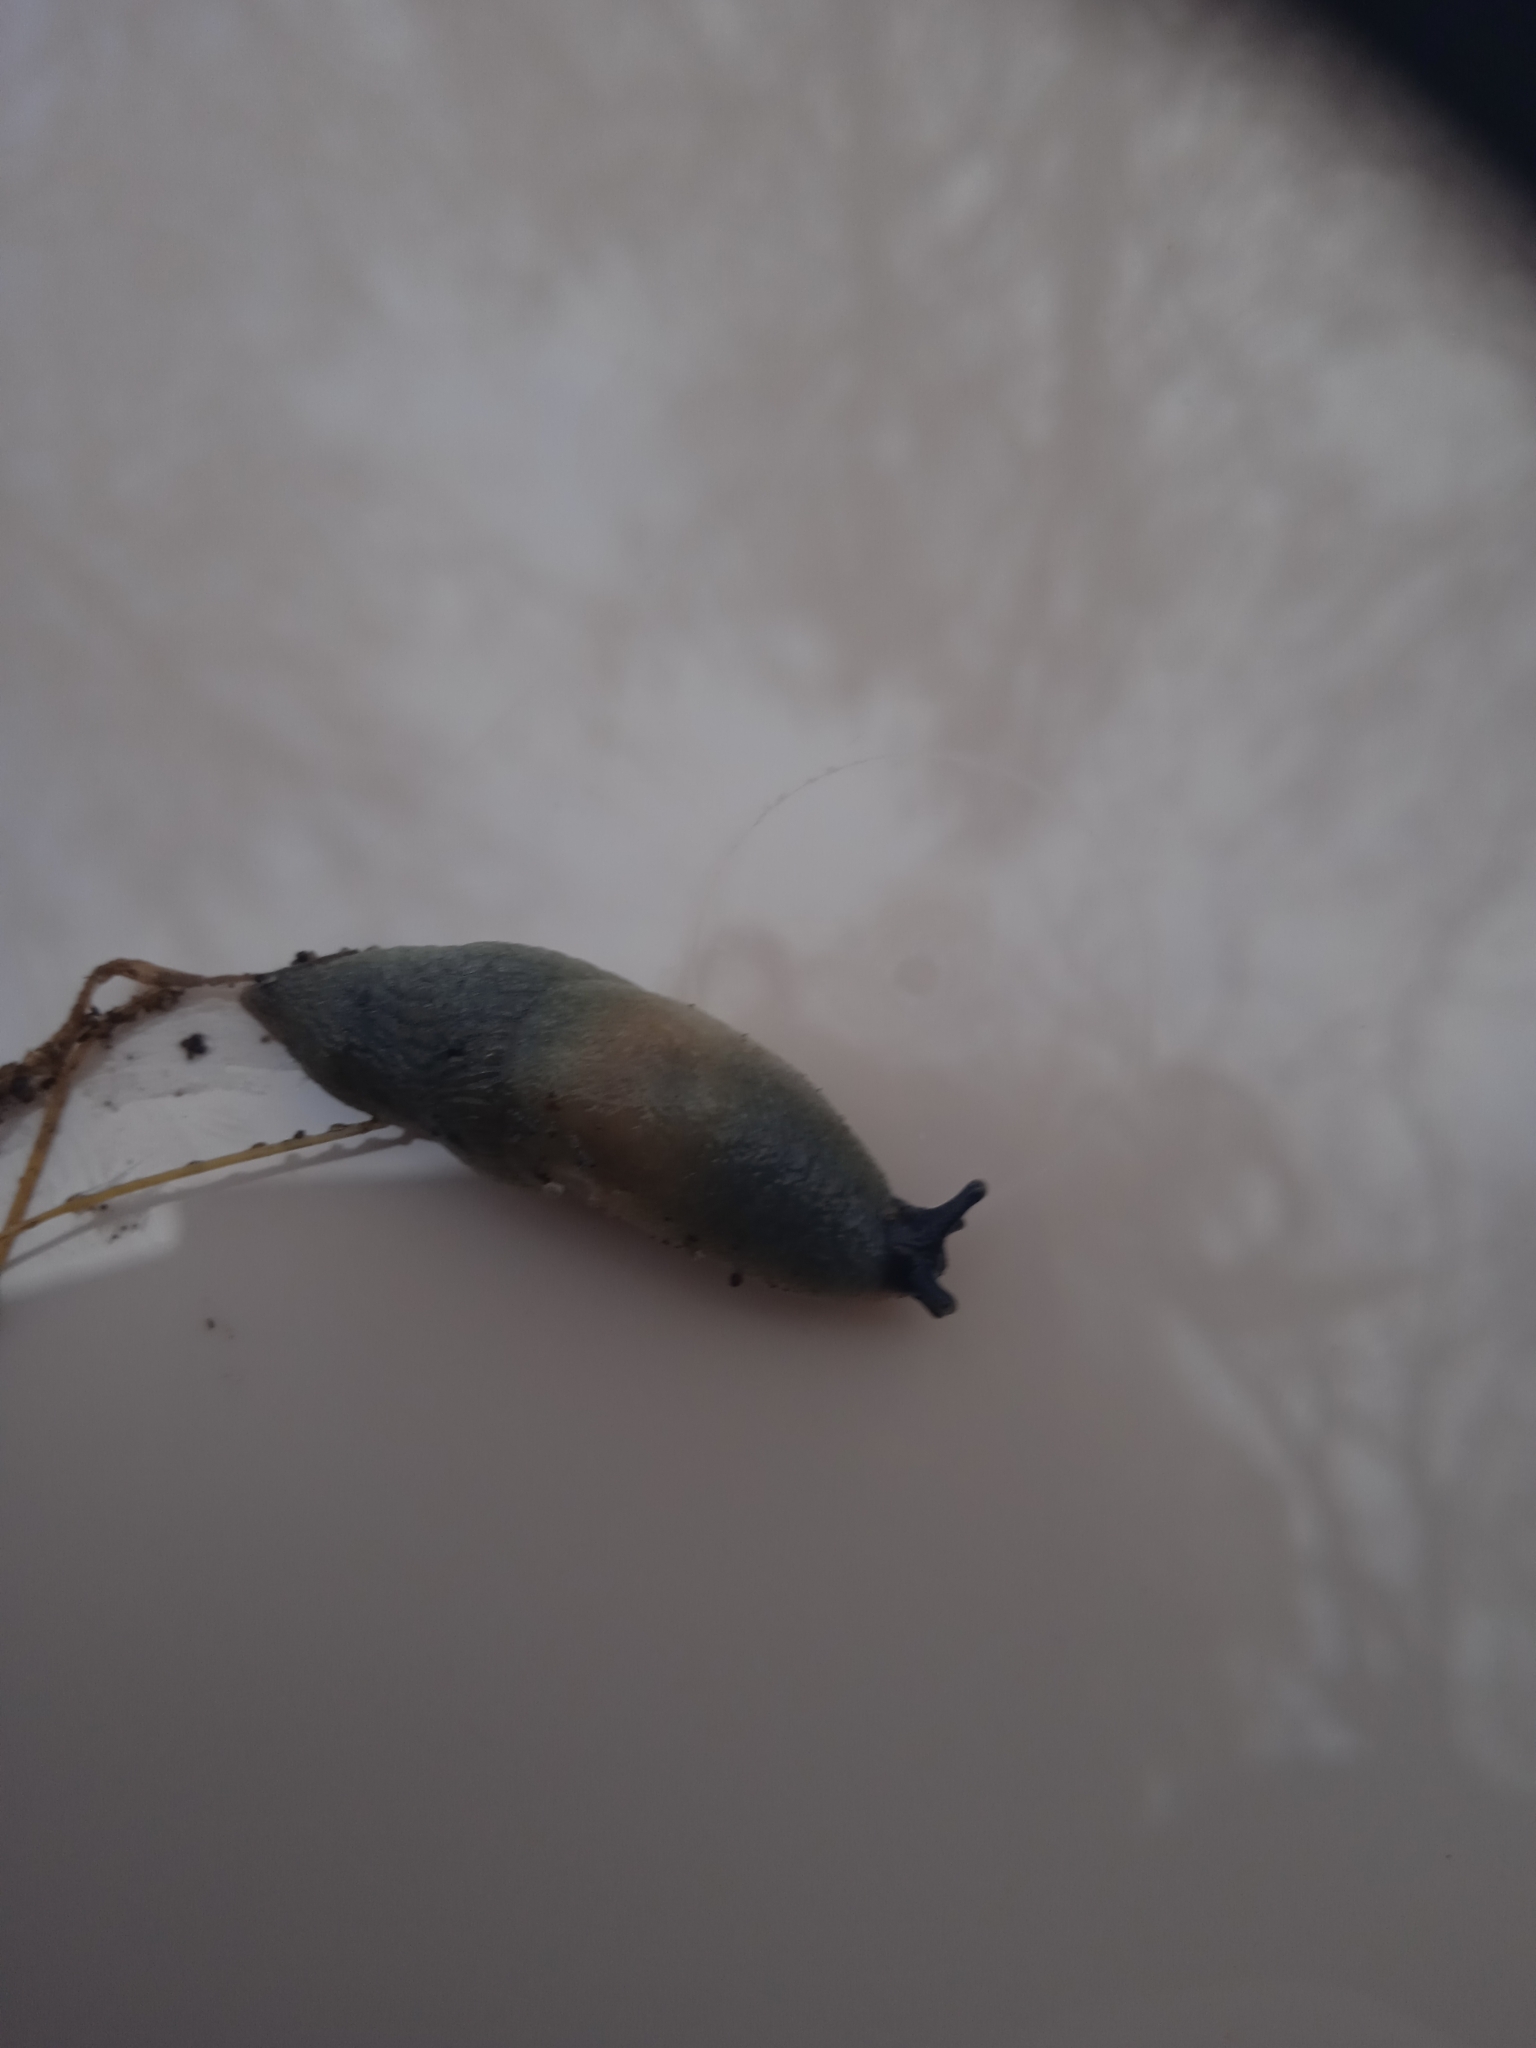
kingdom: Animalia
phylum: Mollusca
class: Gastropoda
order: Stylommatophora
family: Agriolimacidae
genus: Krynickillus
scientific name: Krynickillus melanocephalus
